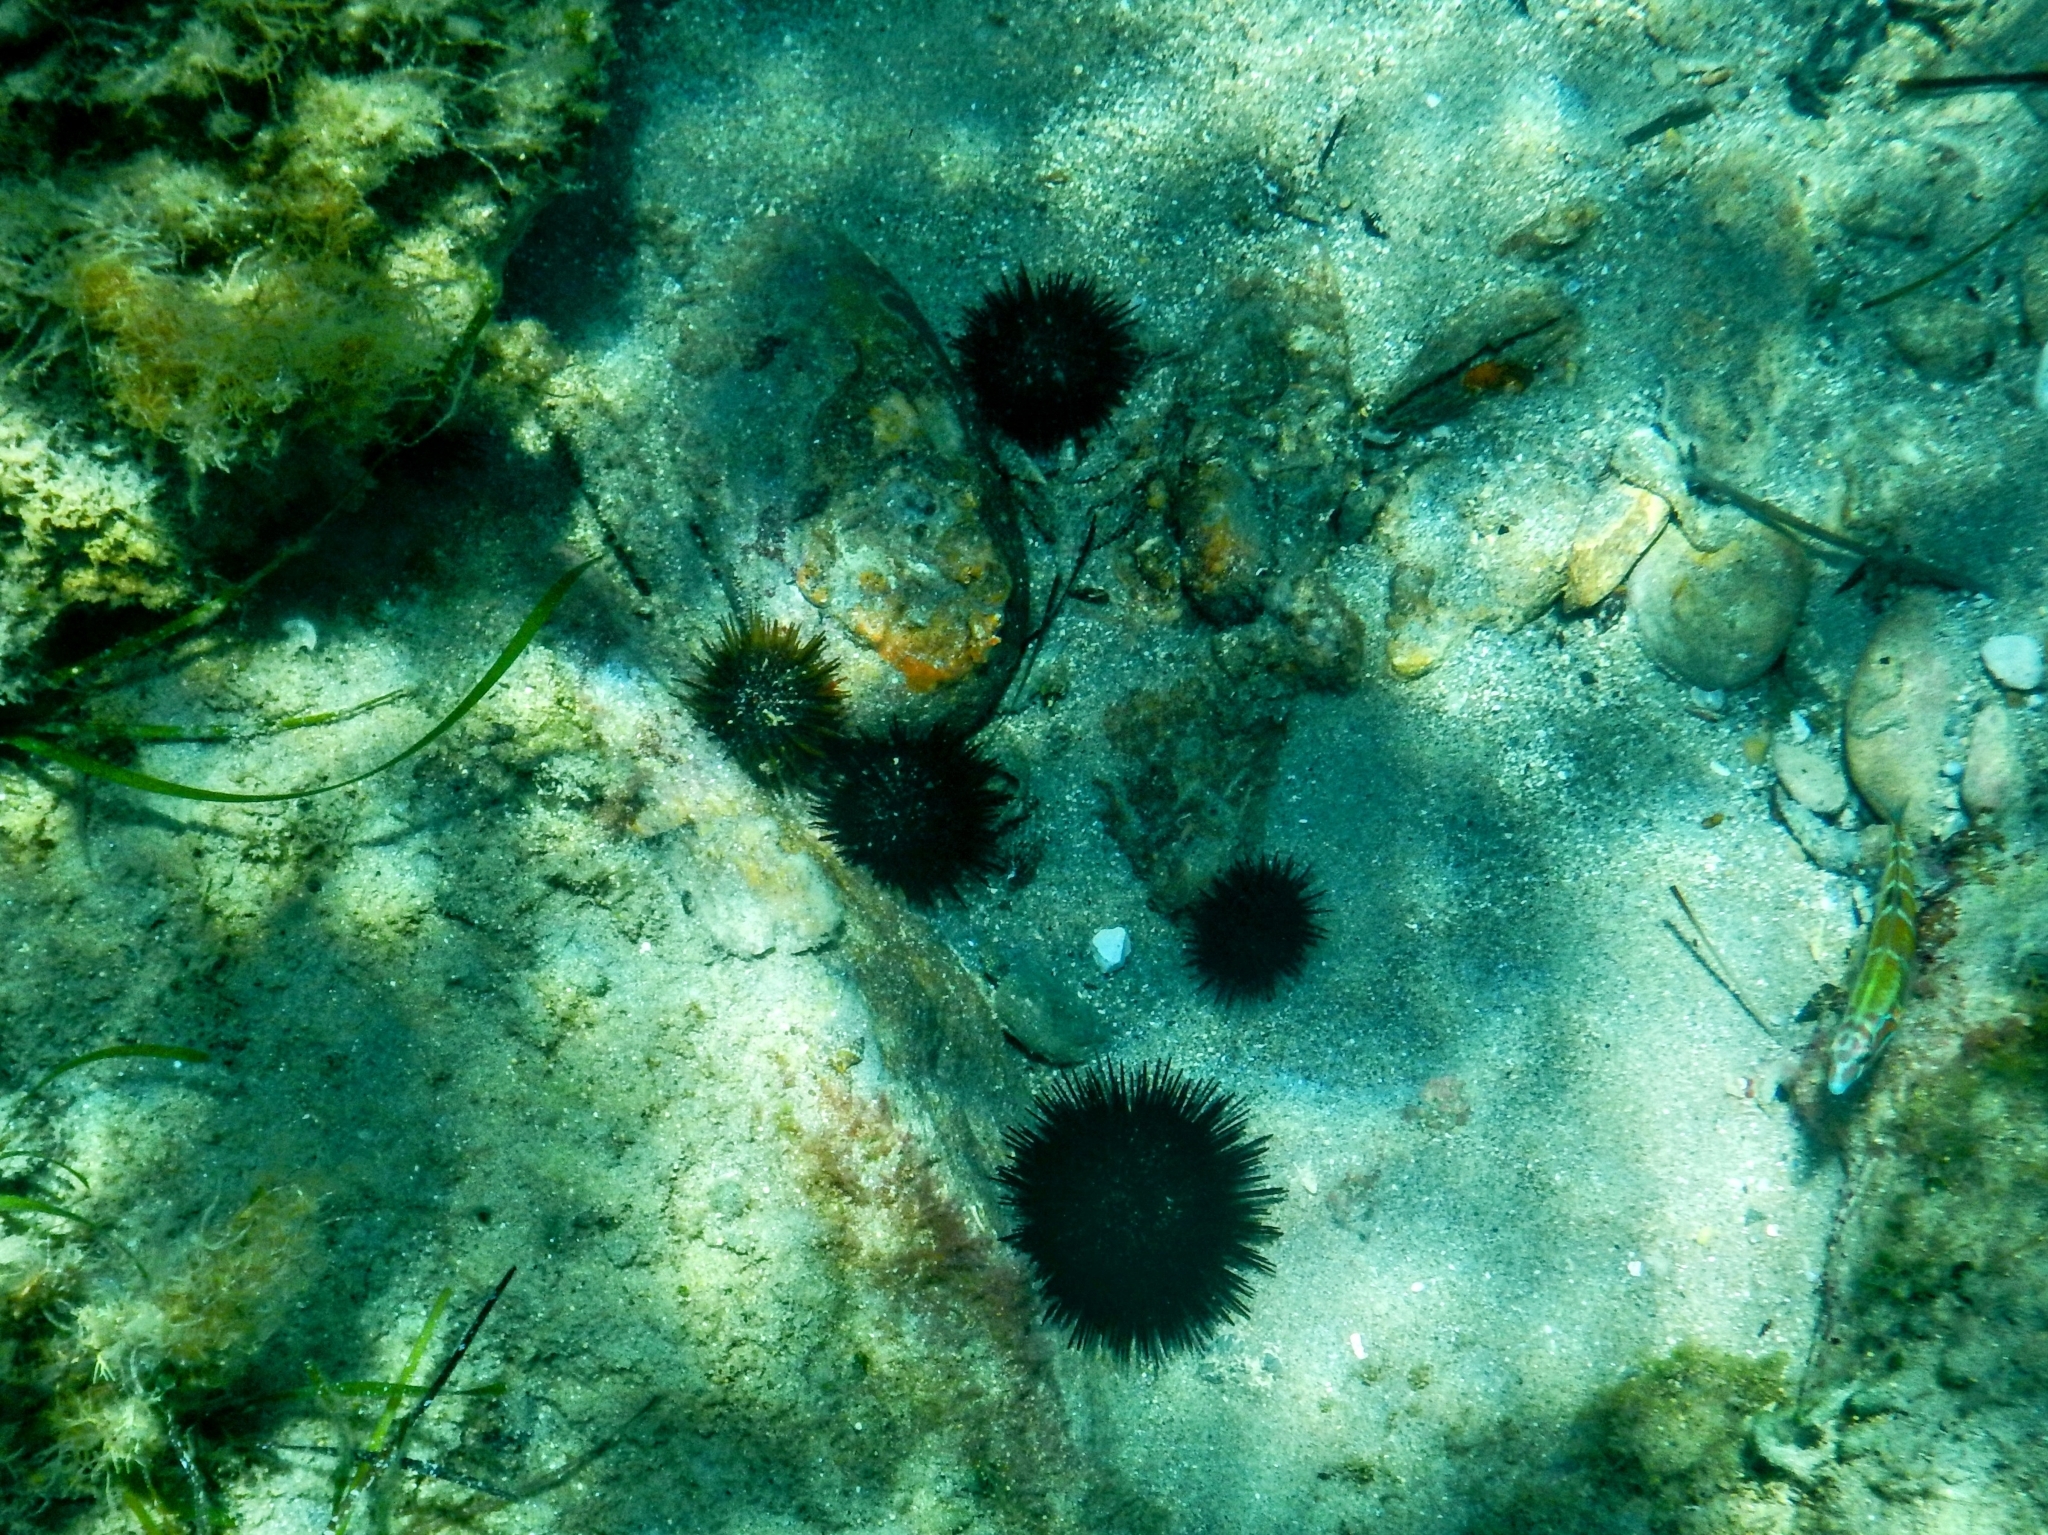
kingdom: Animalia
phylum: Echinodermata
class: Echinoidea
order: Camarodonta
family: Parechinidae
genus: Paracentrotus
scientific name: Paracentrotus lividus
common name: Purple sea urchin
